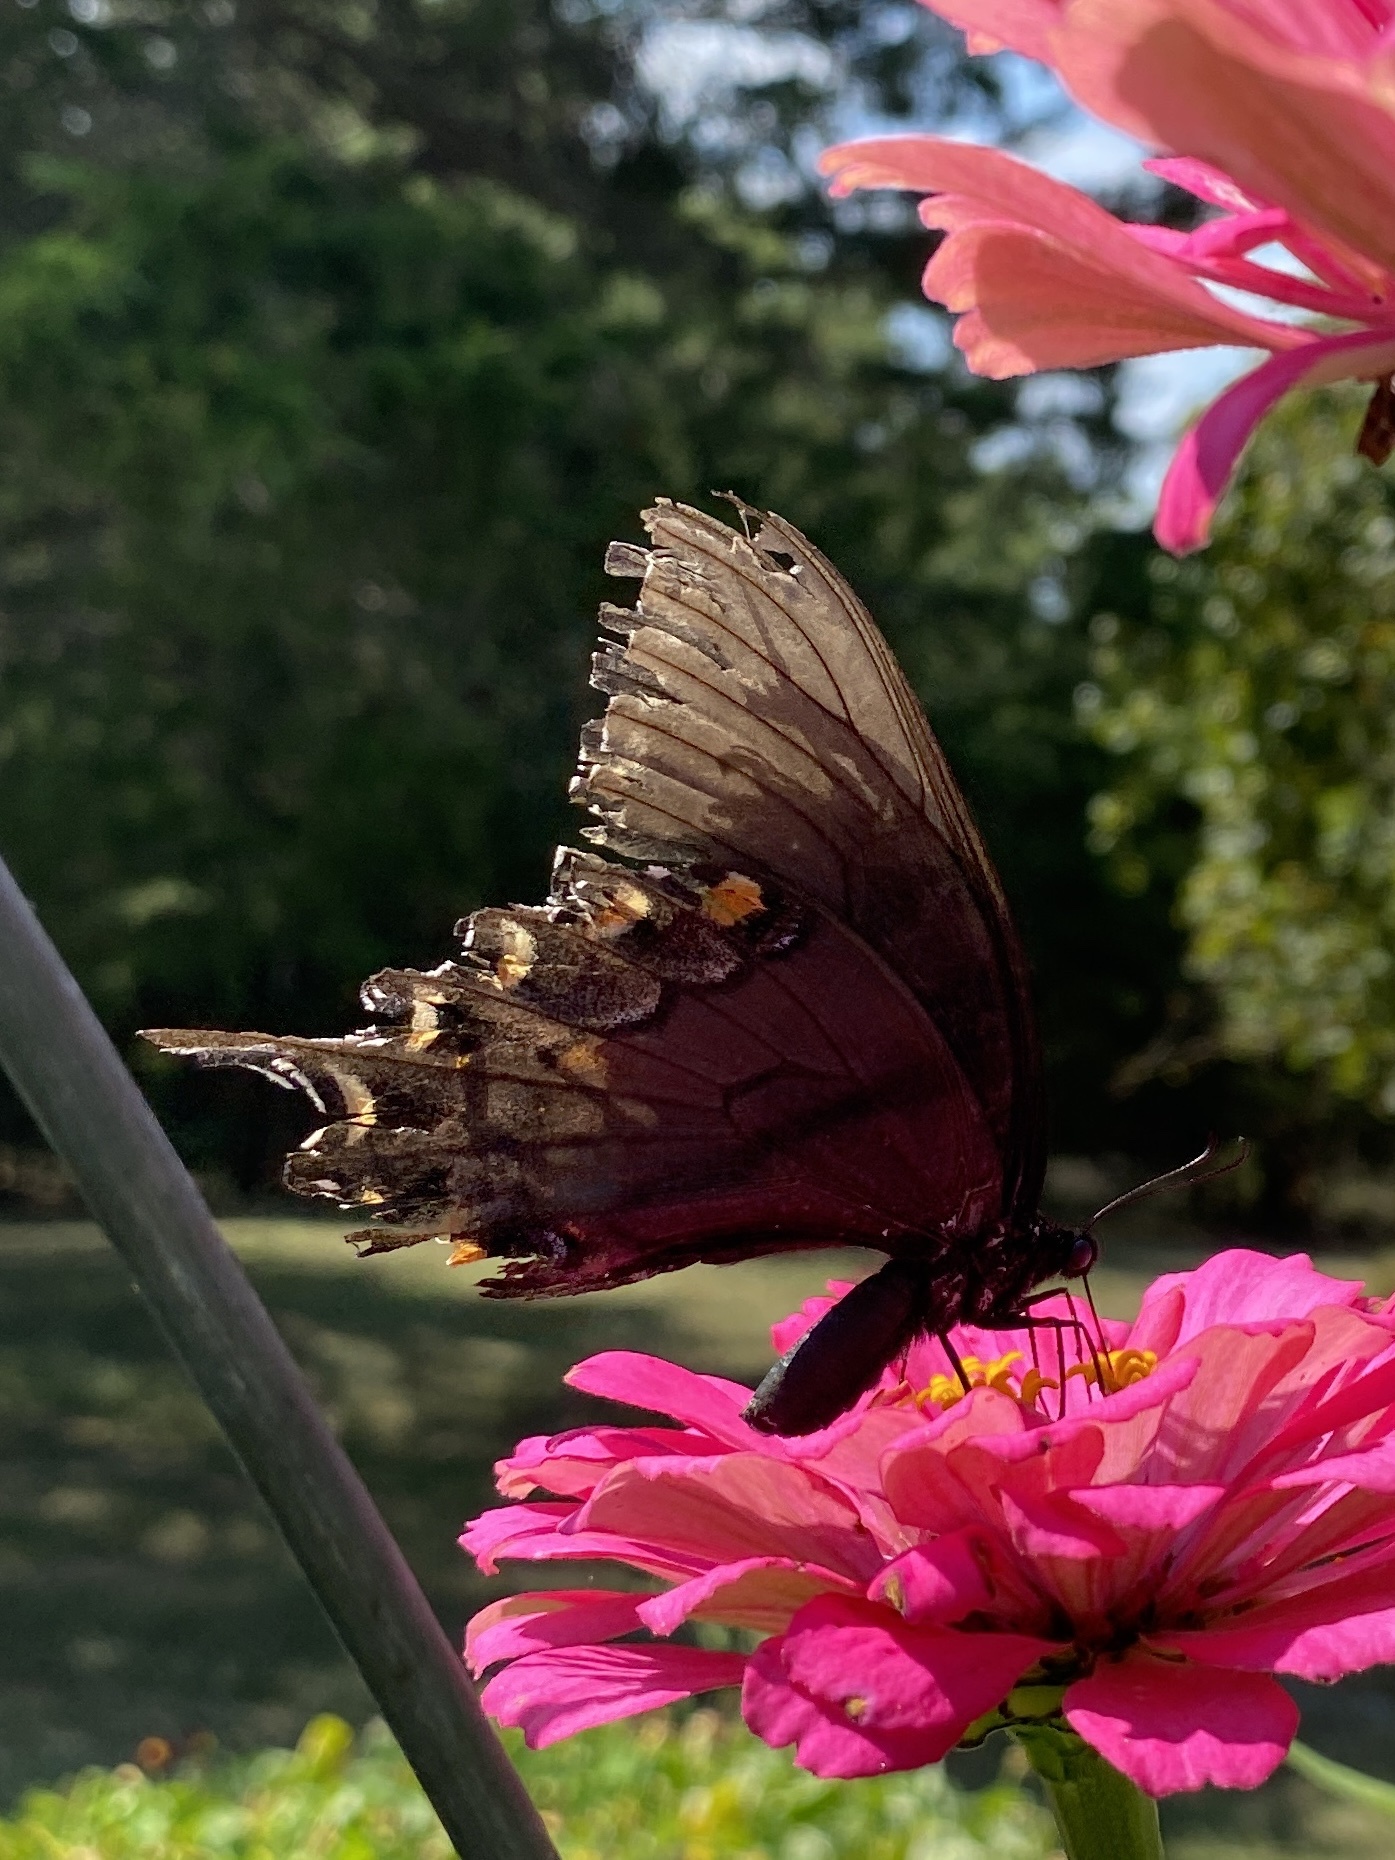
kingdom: Animalia
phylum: Arthropoda
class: Insecta
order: Lepidoptera
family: Papilionidae
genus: Papilio
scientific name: Papilio glaucus
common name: Tiger swallowtail
